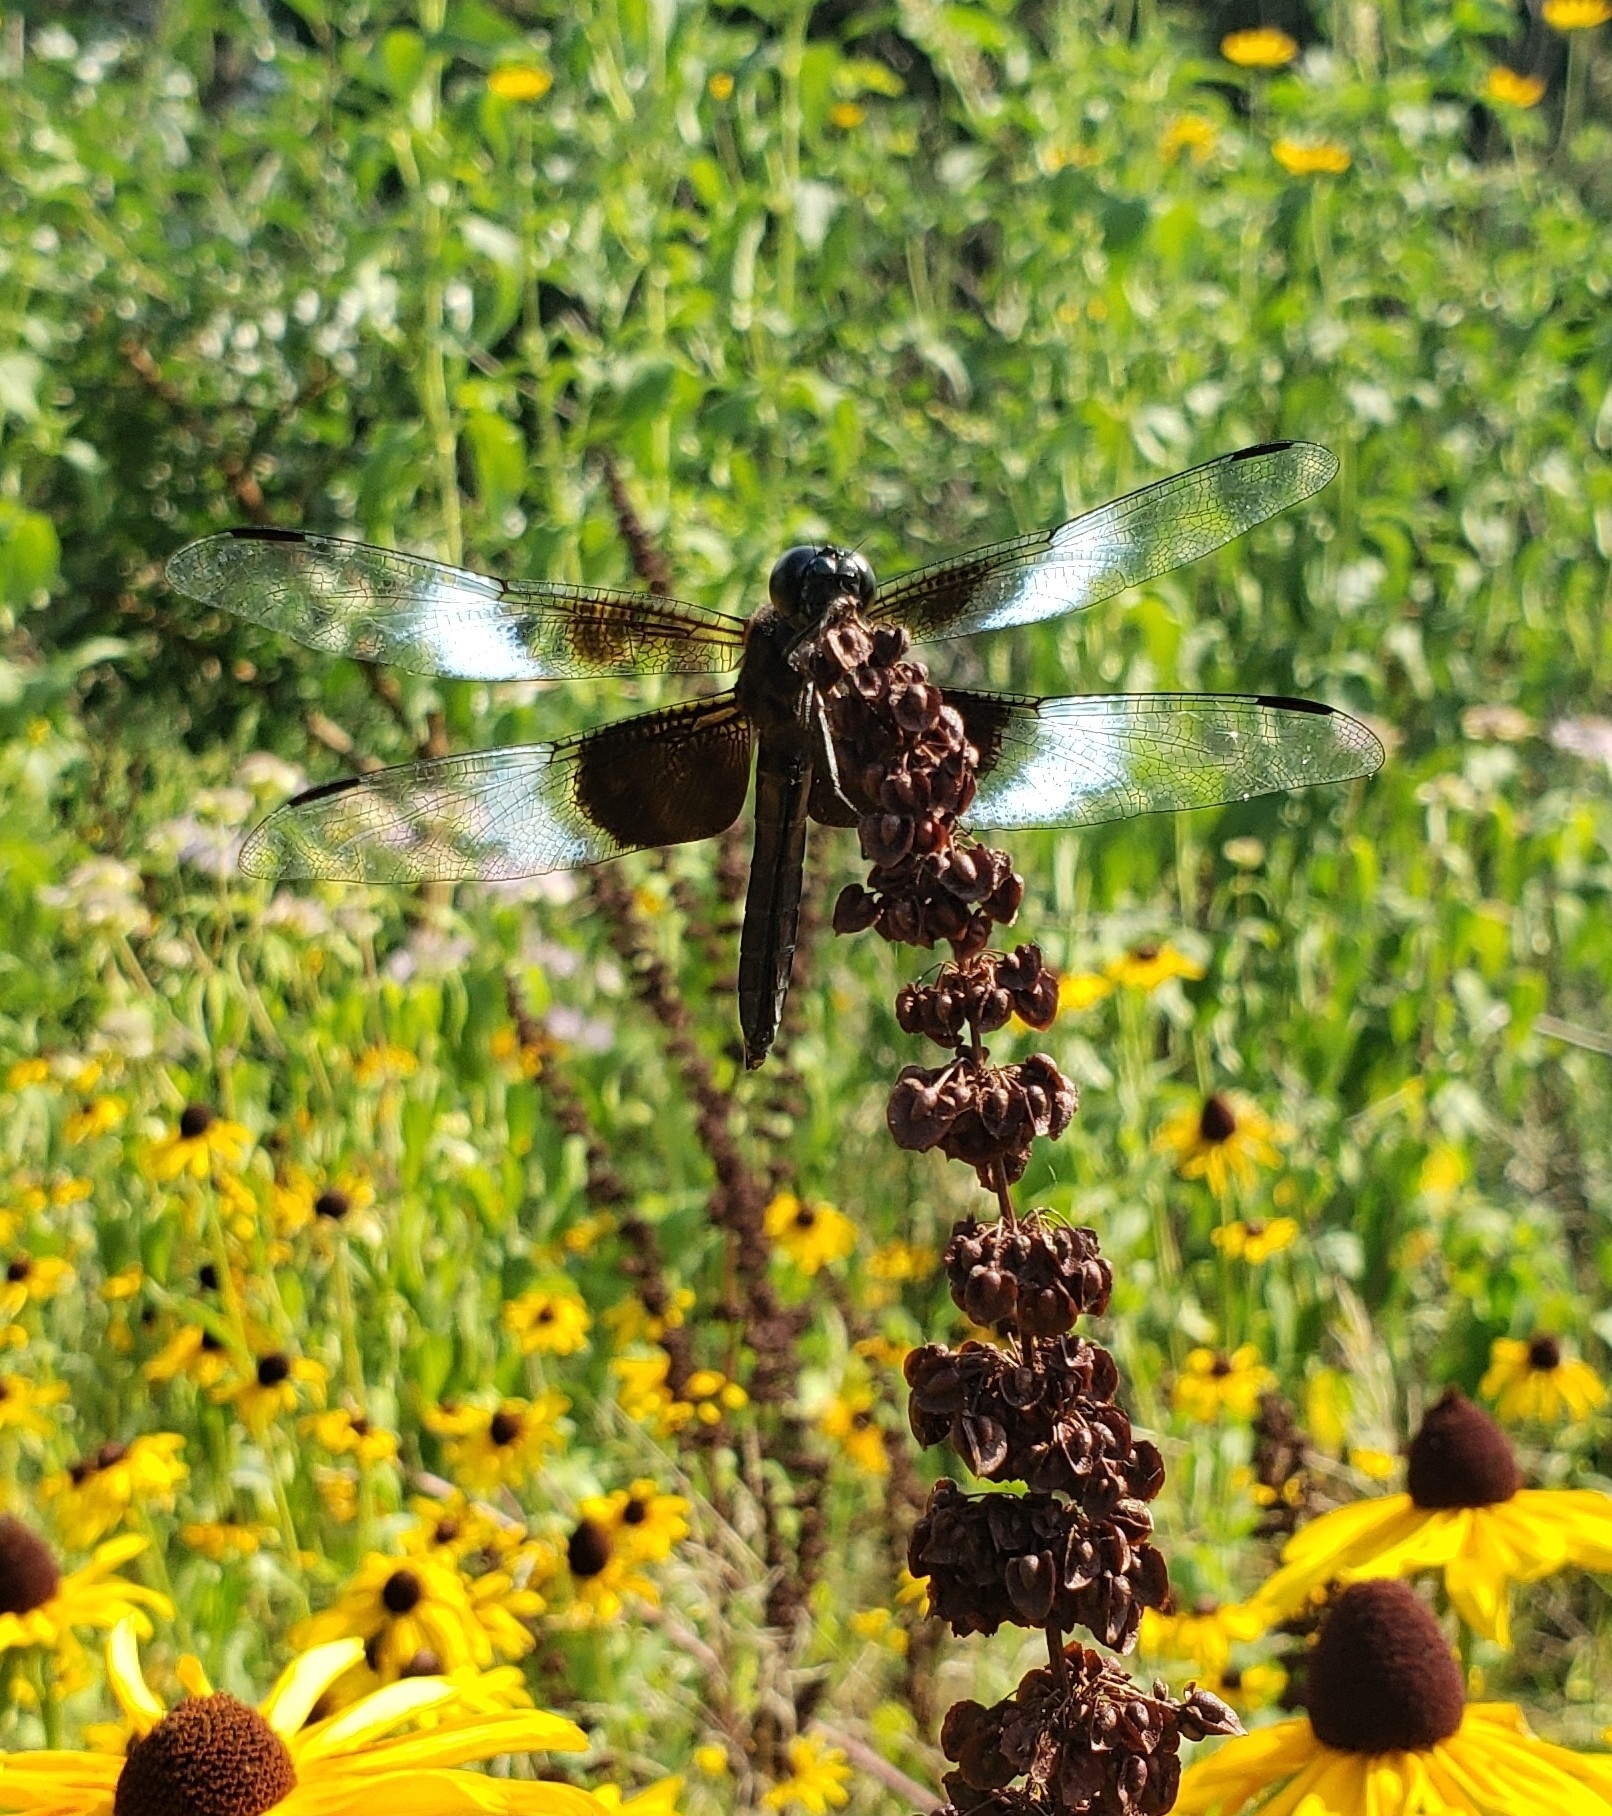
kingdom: Animalia
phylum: Arthropoda
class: Insecta
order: Odonata
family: Libellulidae
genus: Libellula
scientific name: Libellula luctuosa
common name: Widow skimmer
